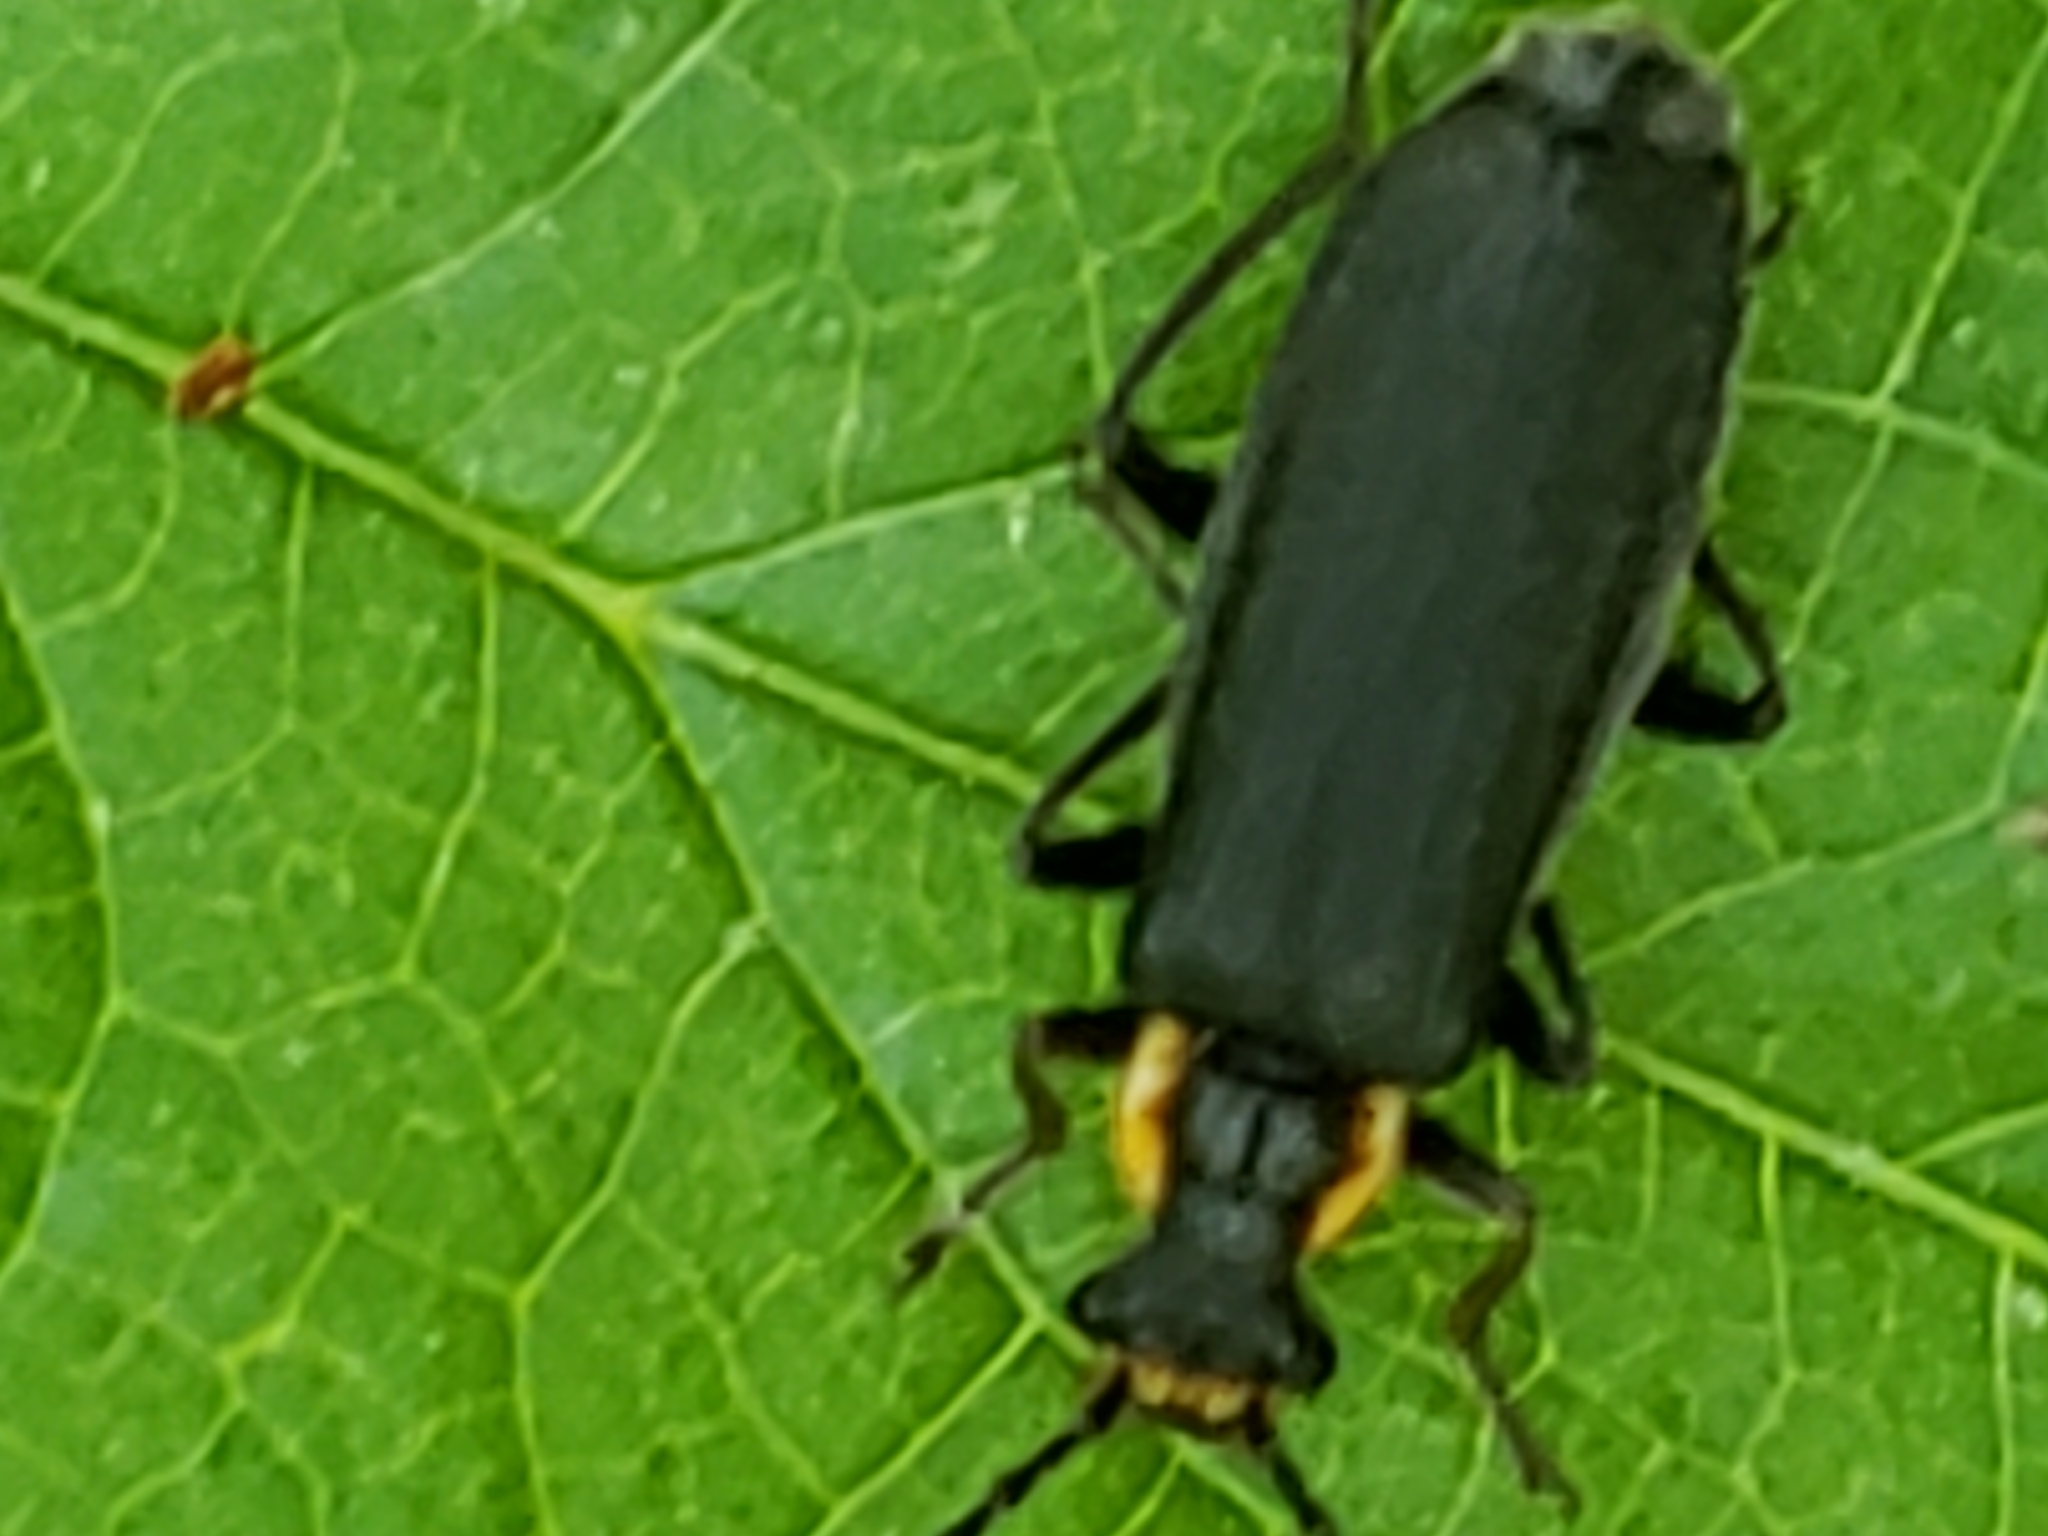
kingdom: Animalia
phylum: Arthropoda
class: Insecta
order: Coleoptera
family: Cantharidae
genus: Podabrus
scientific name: Podabrus rugosulus
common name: Wrinkled soldier beetle
